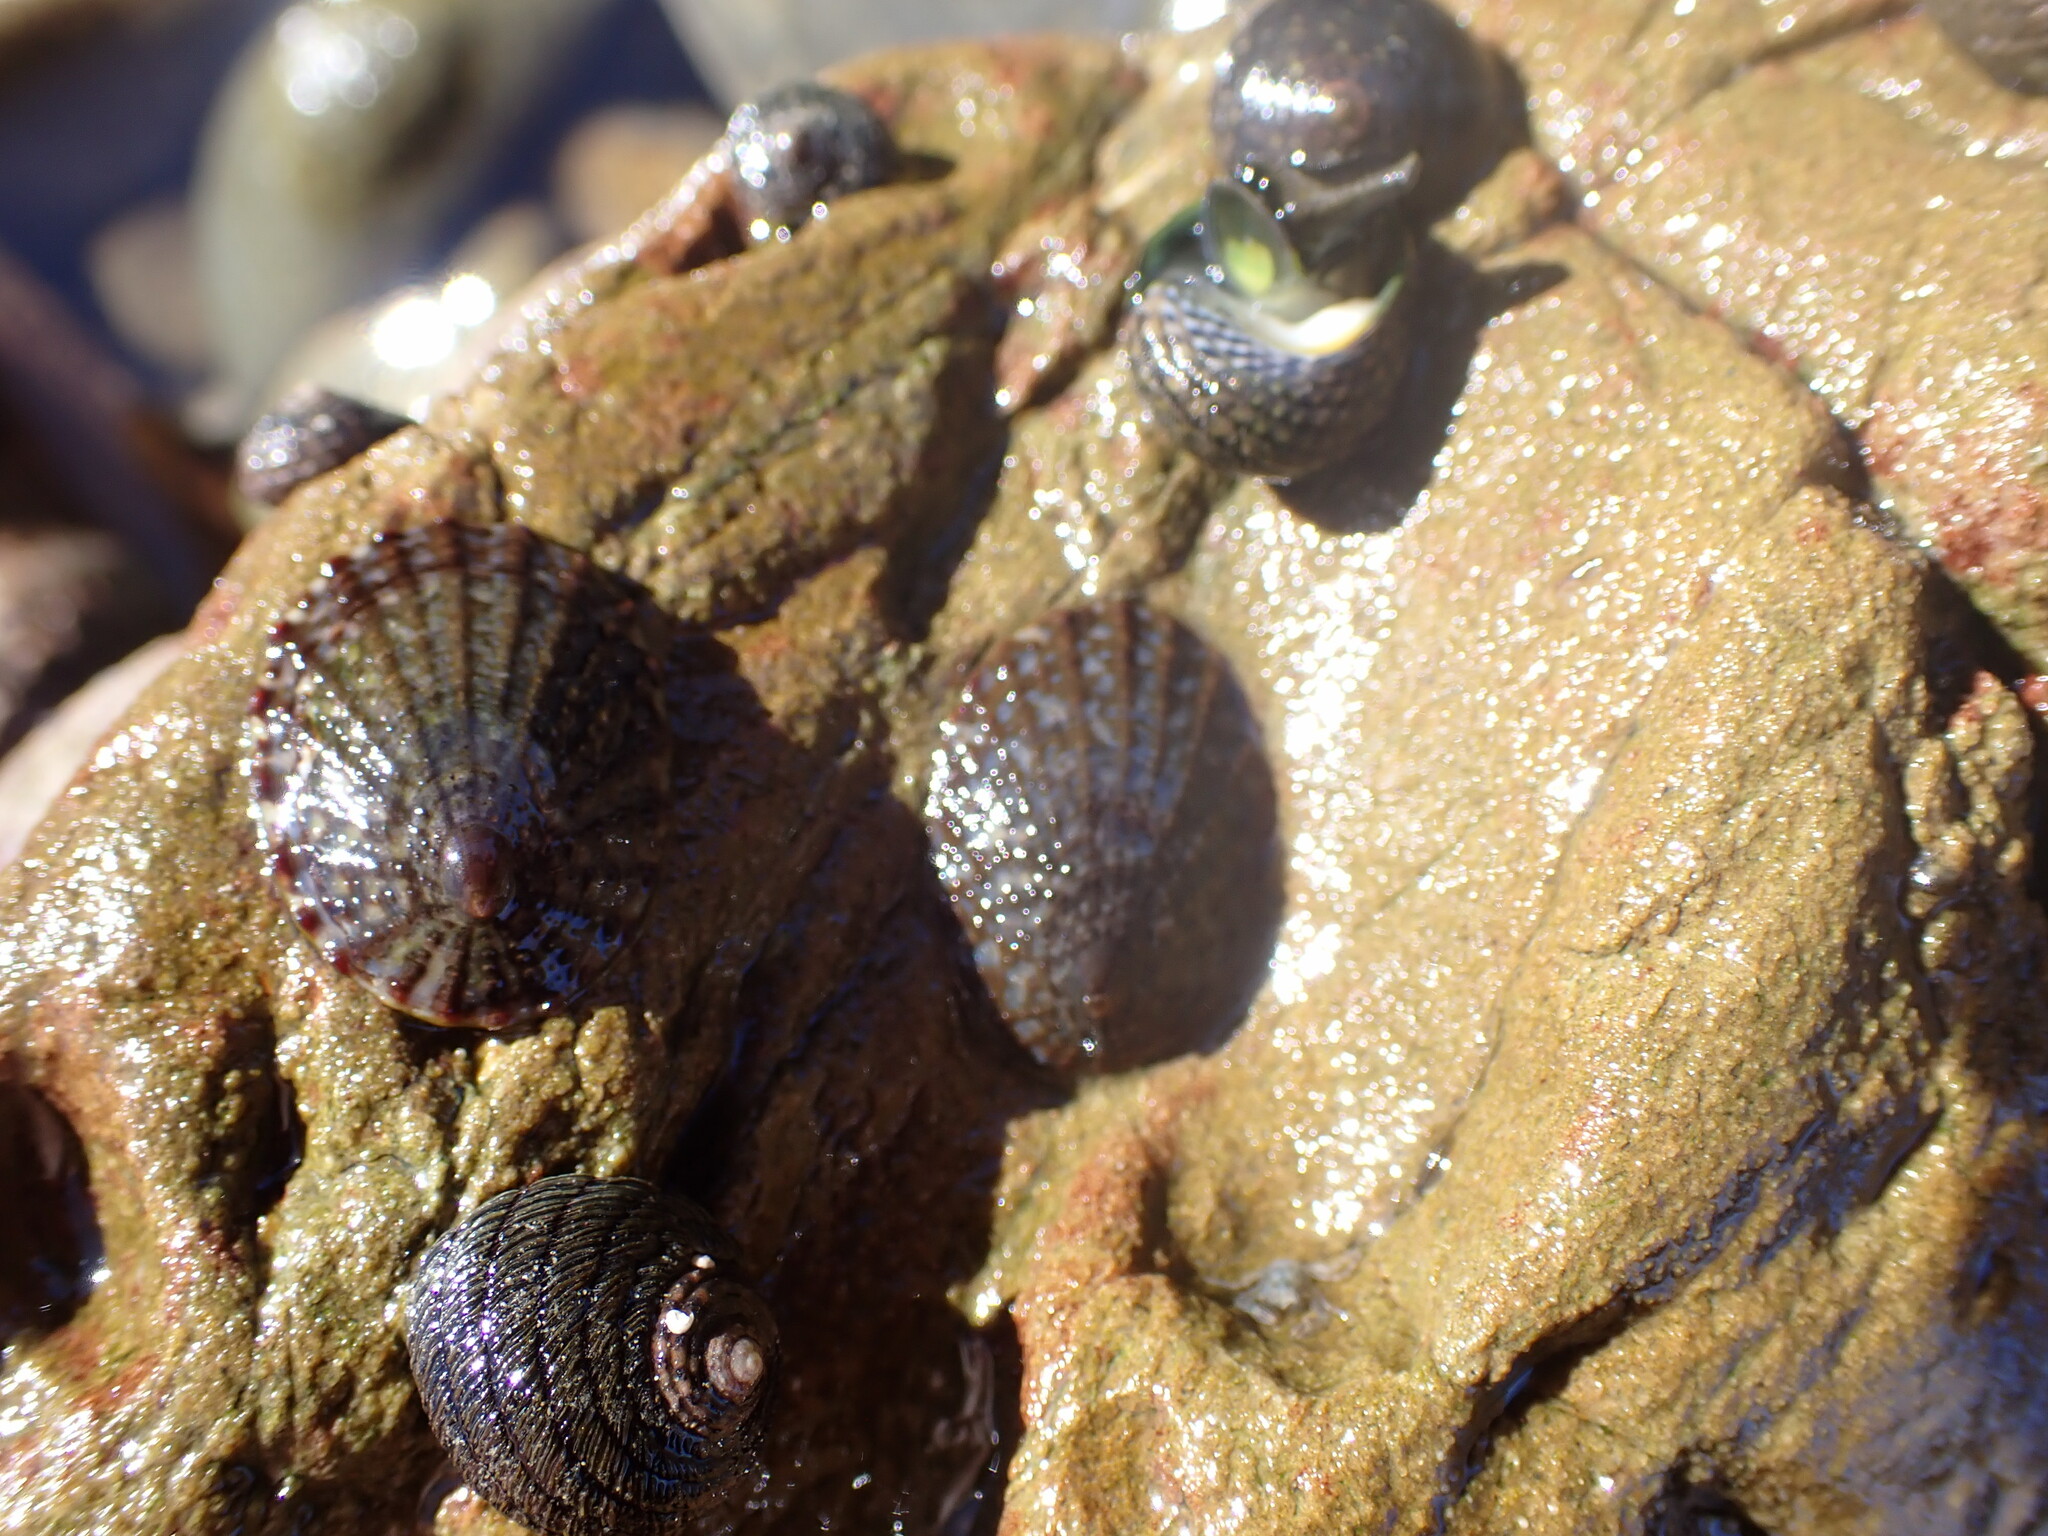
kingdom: Animalia
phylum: Mollusca
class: Gastropoda
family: Nacellidae
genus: Cellana
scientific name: Cellana denticulata
